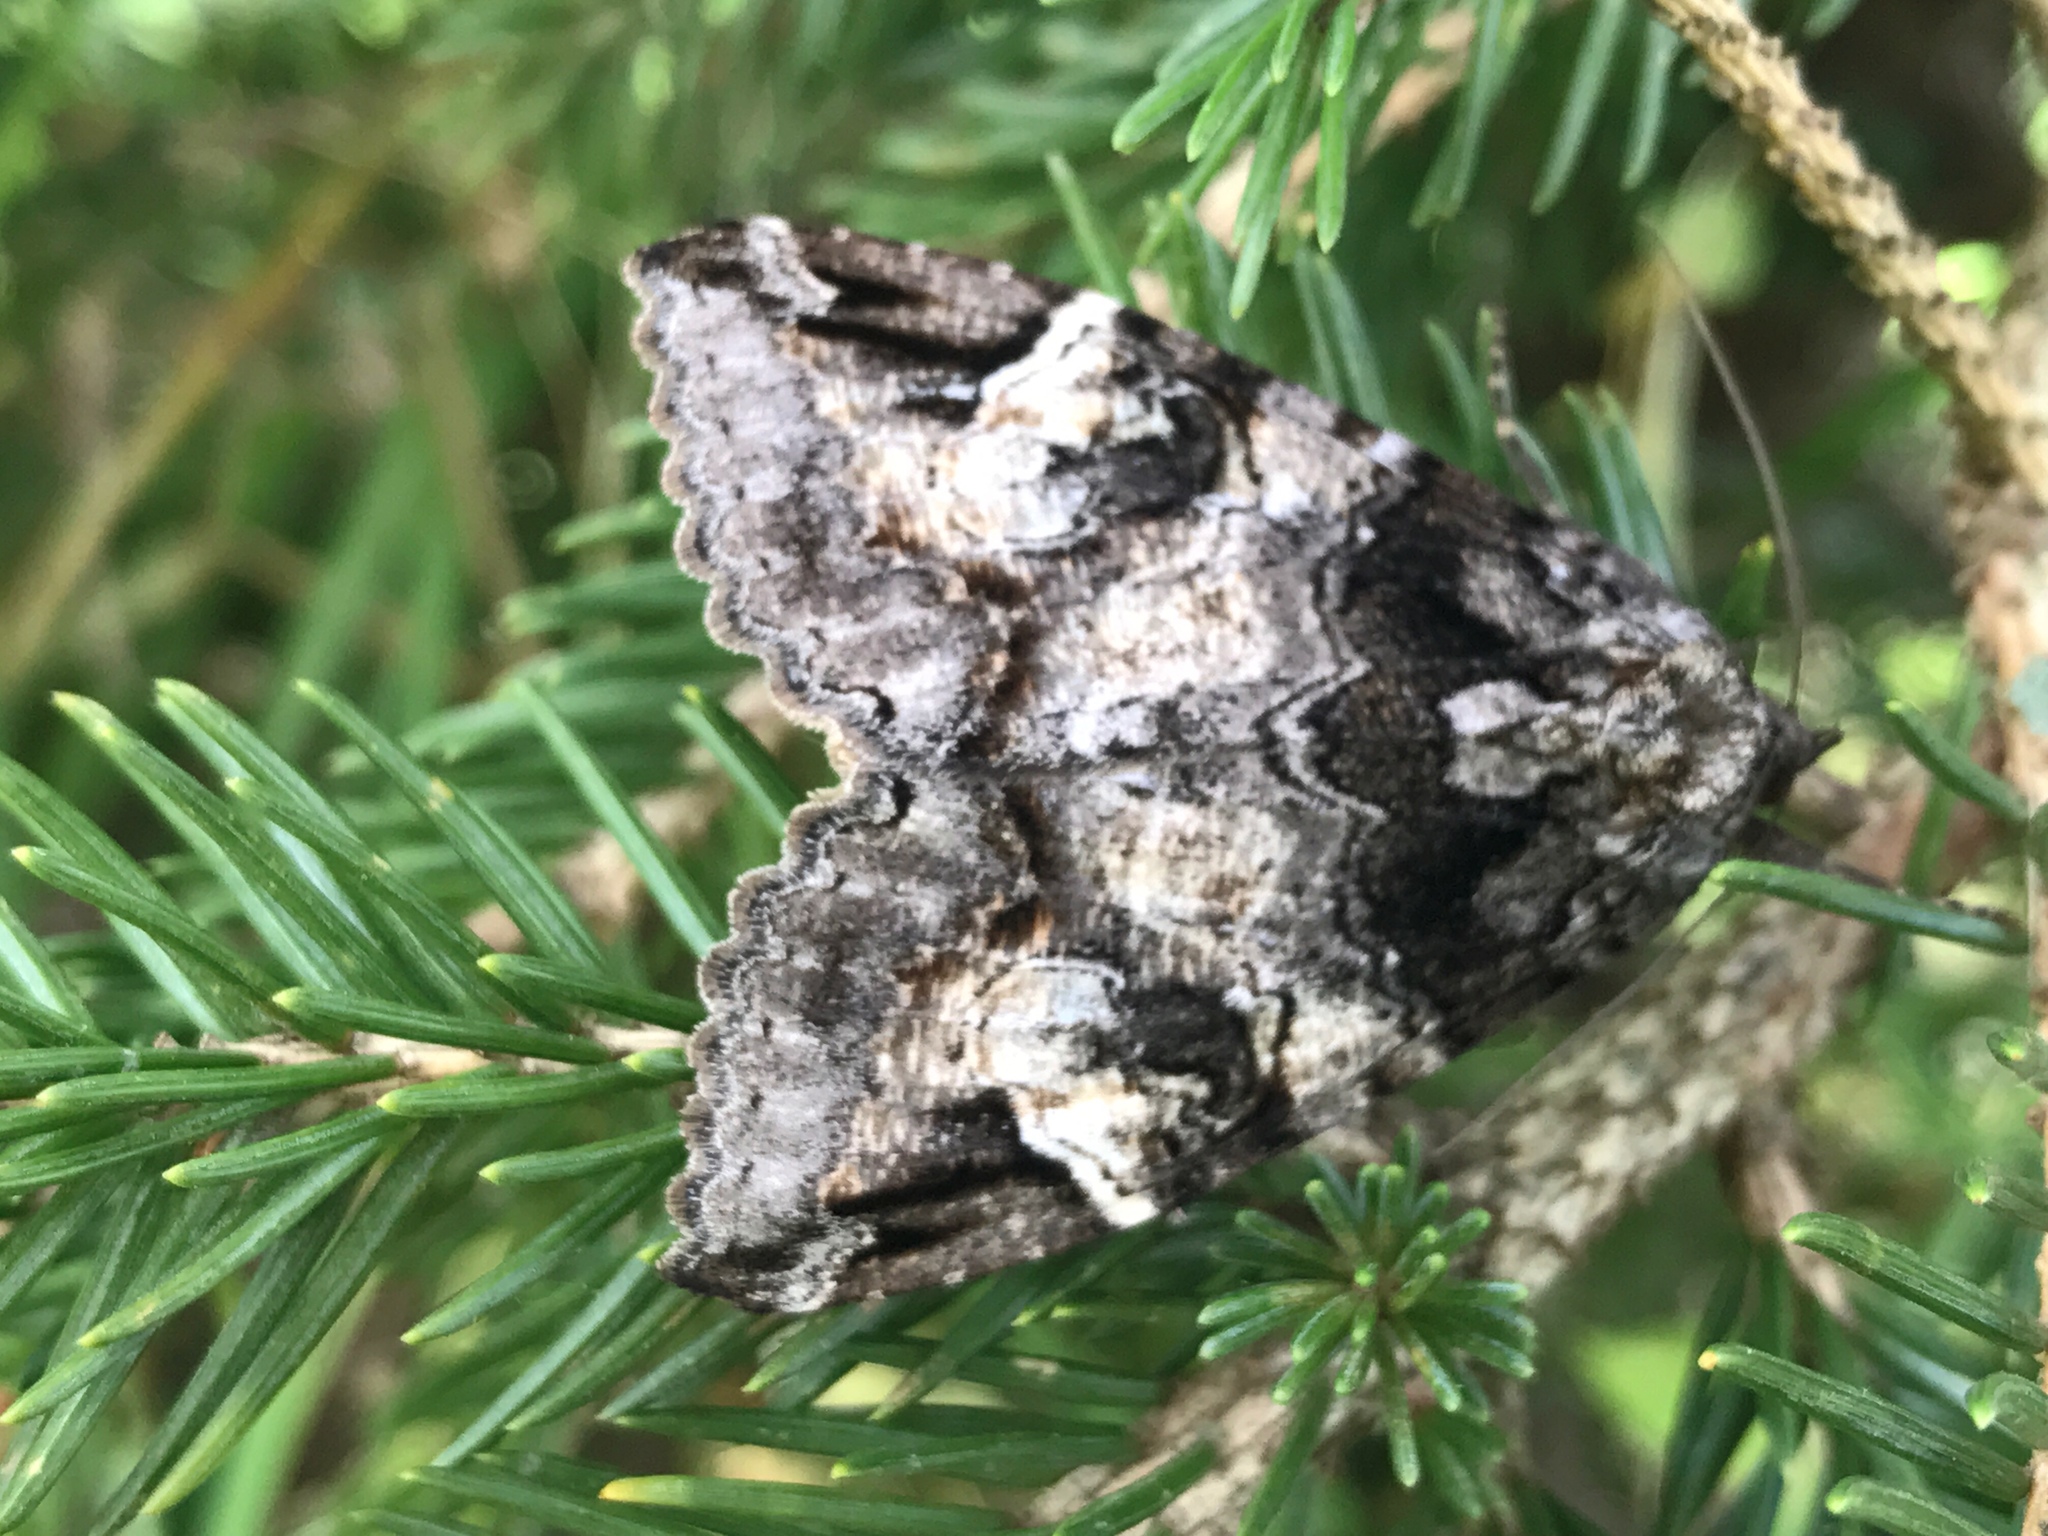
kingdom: Animalia
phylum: Arthropoda
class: Insecta
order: Lepidoptera
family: Erebidae
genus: Euparthenos
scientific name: Euparthenos nubilis
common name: Locust underwing
